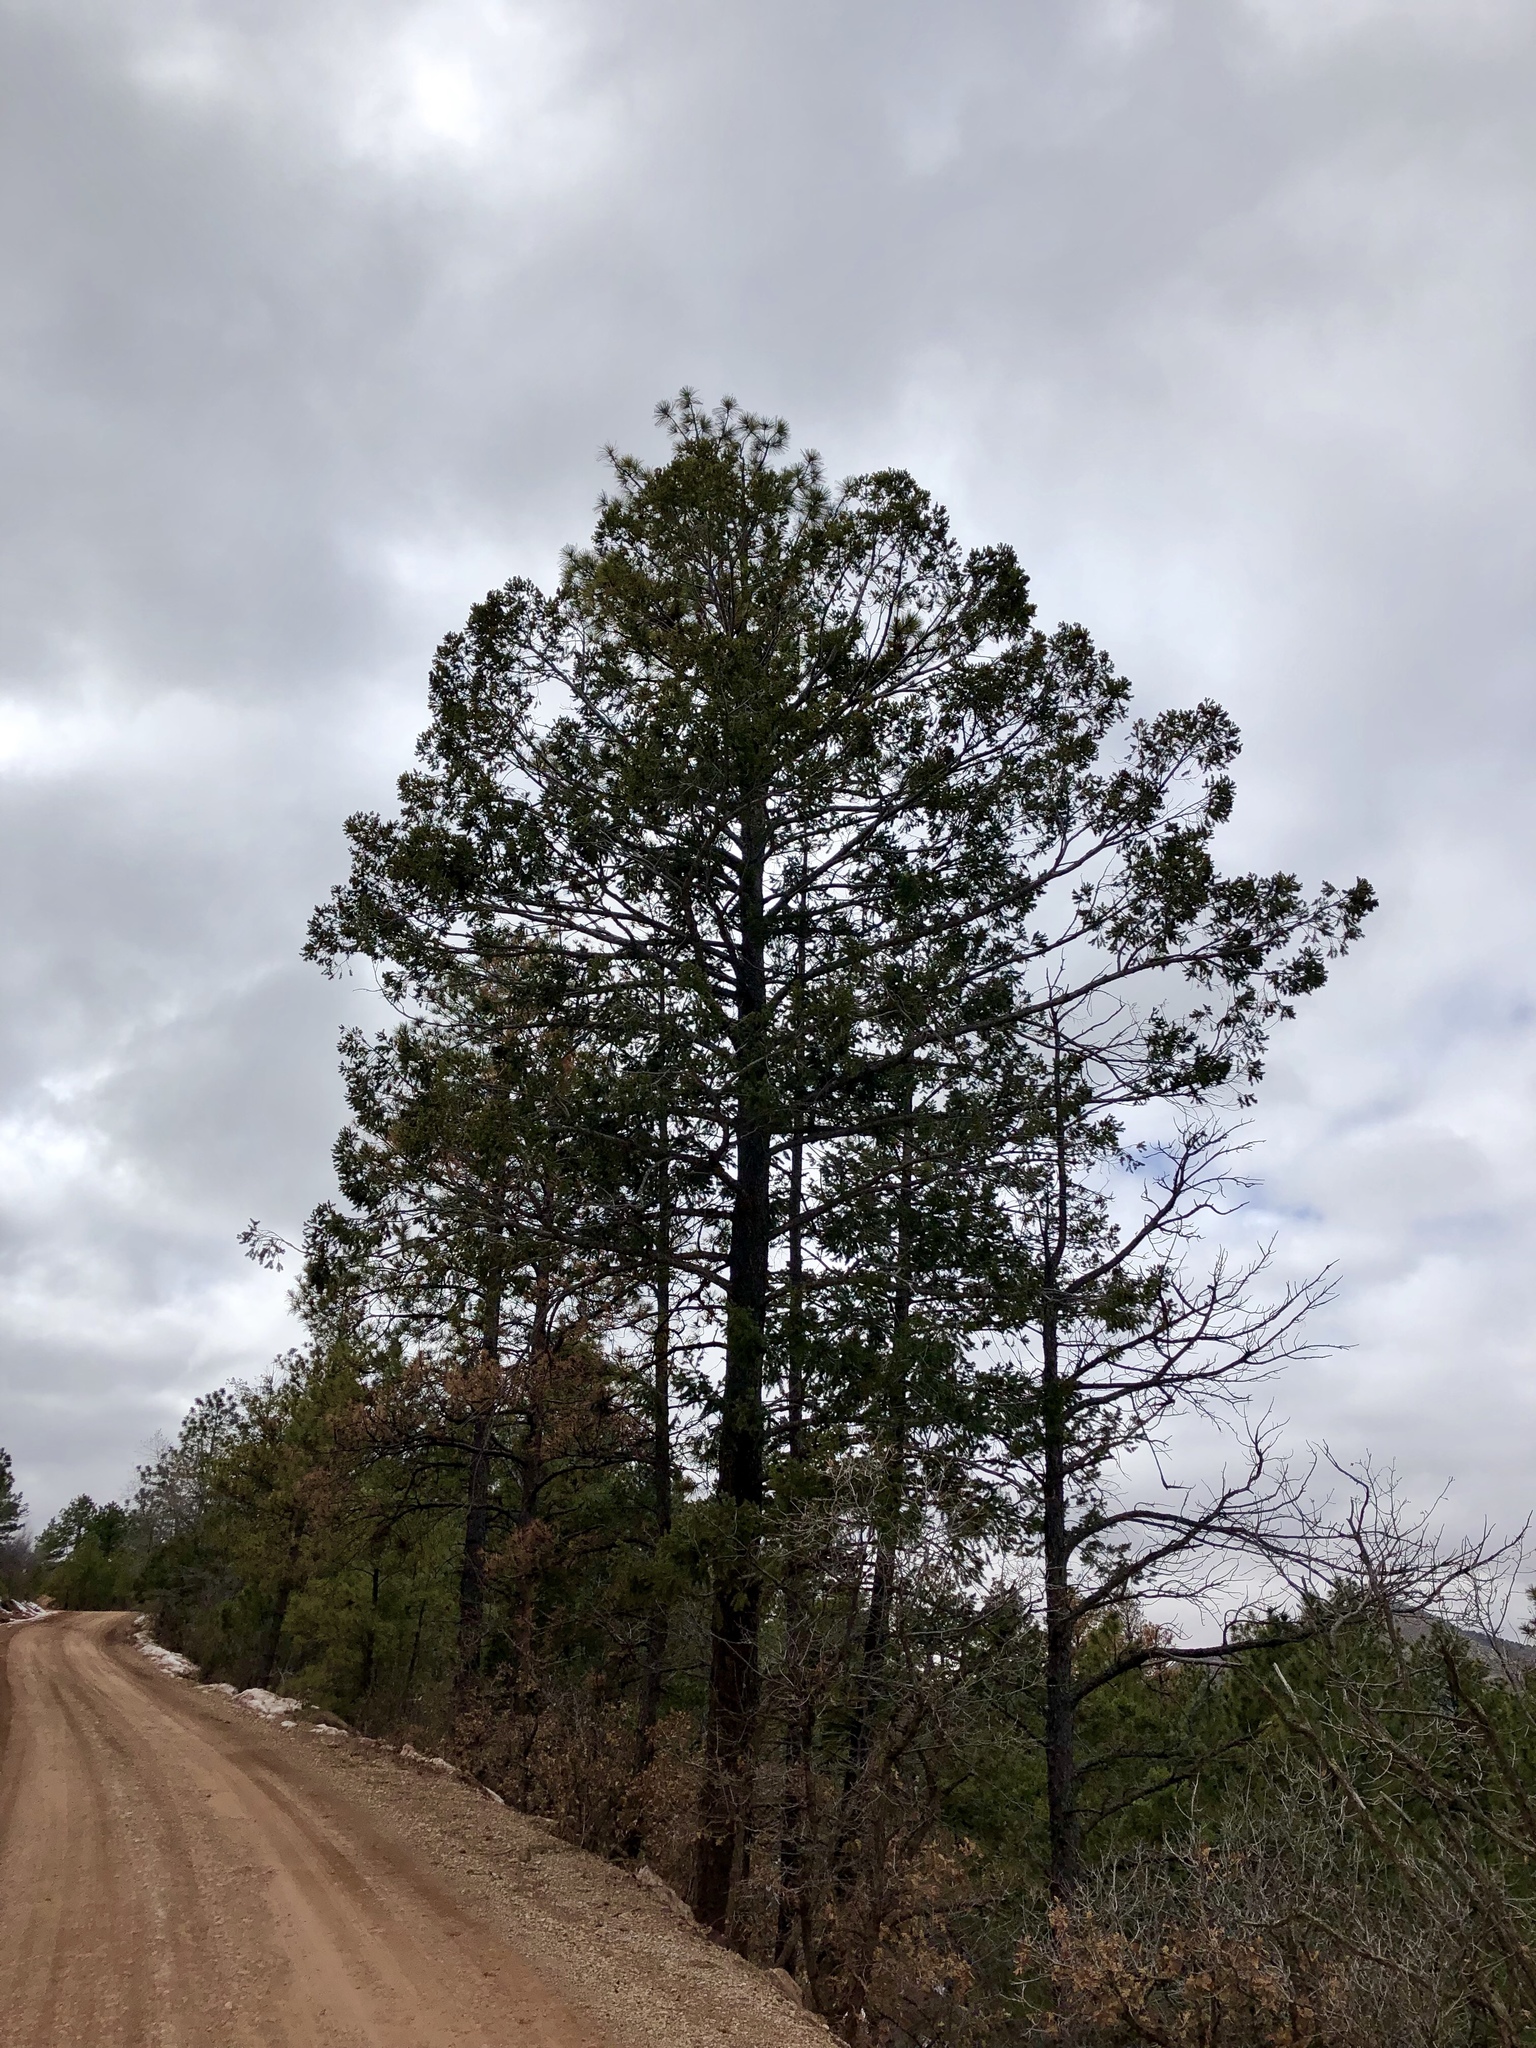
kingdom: Plantae
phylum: Tracheophyta
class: Pinopsida
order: Pinales
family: Pinaceae
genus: Pinus
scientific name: Pinus ponderosa
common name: Western yellow-pine
